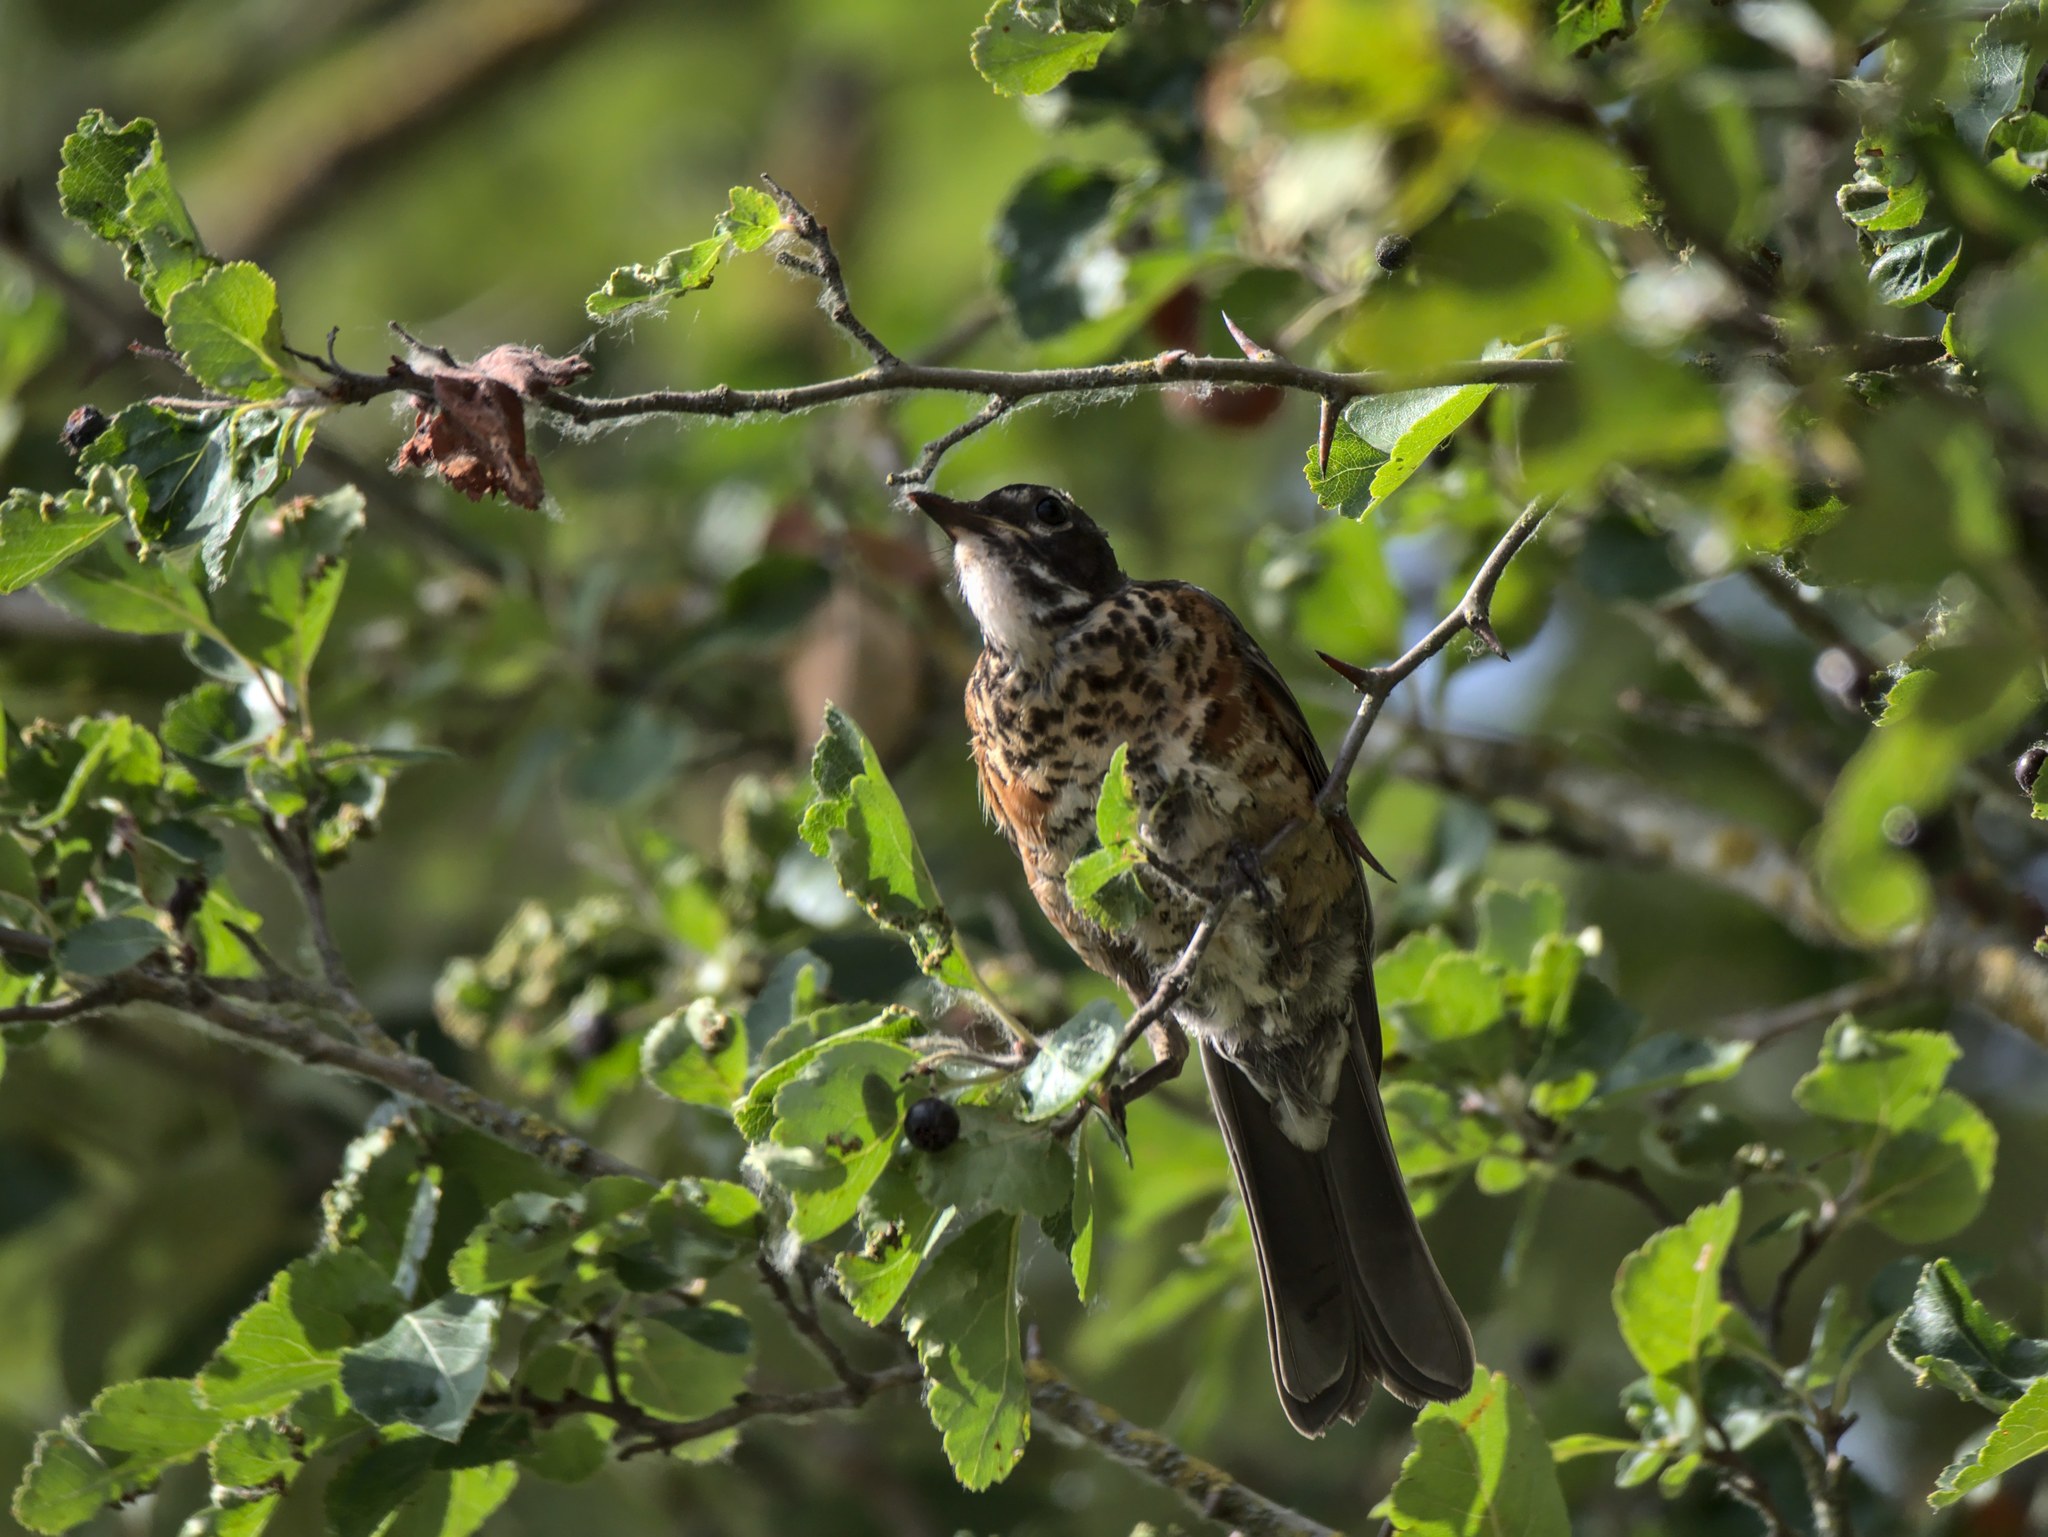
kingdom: Animalia
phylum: Chordata
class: Aves
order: Passeriformes
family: Turdidae
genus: Turdus
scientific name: Turdus migratorius
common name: American robin
